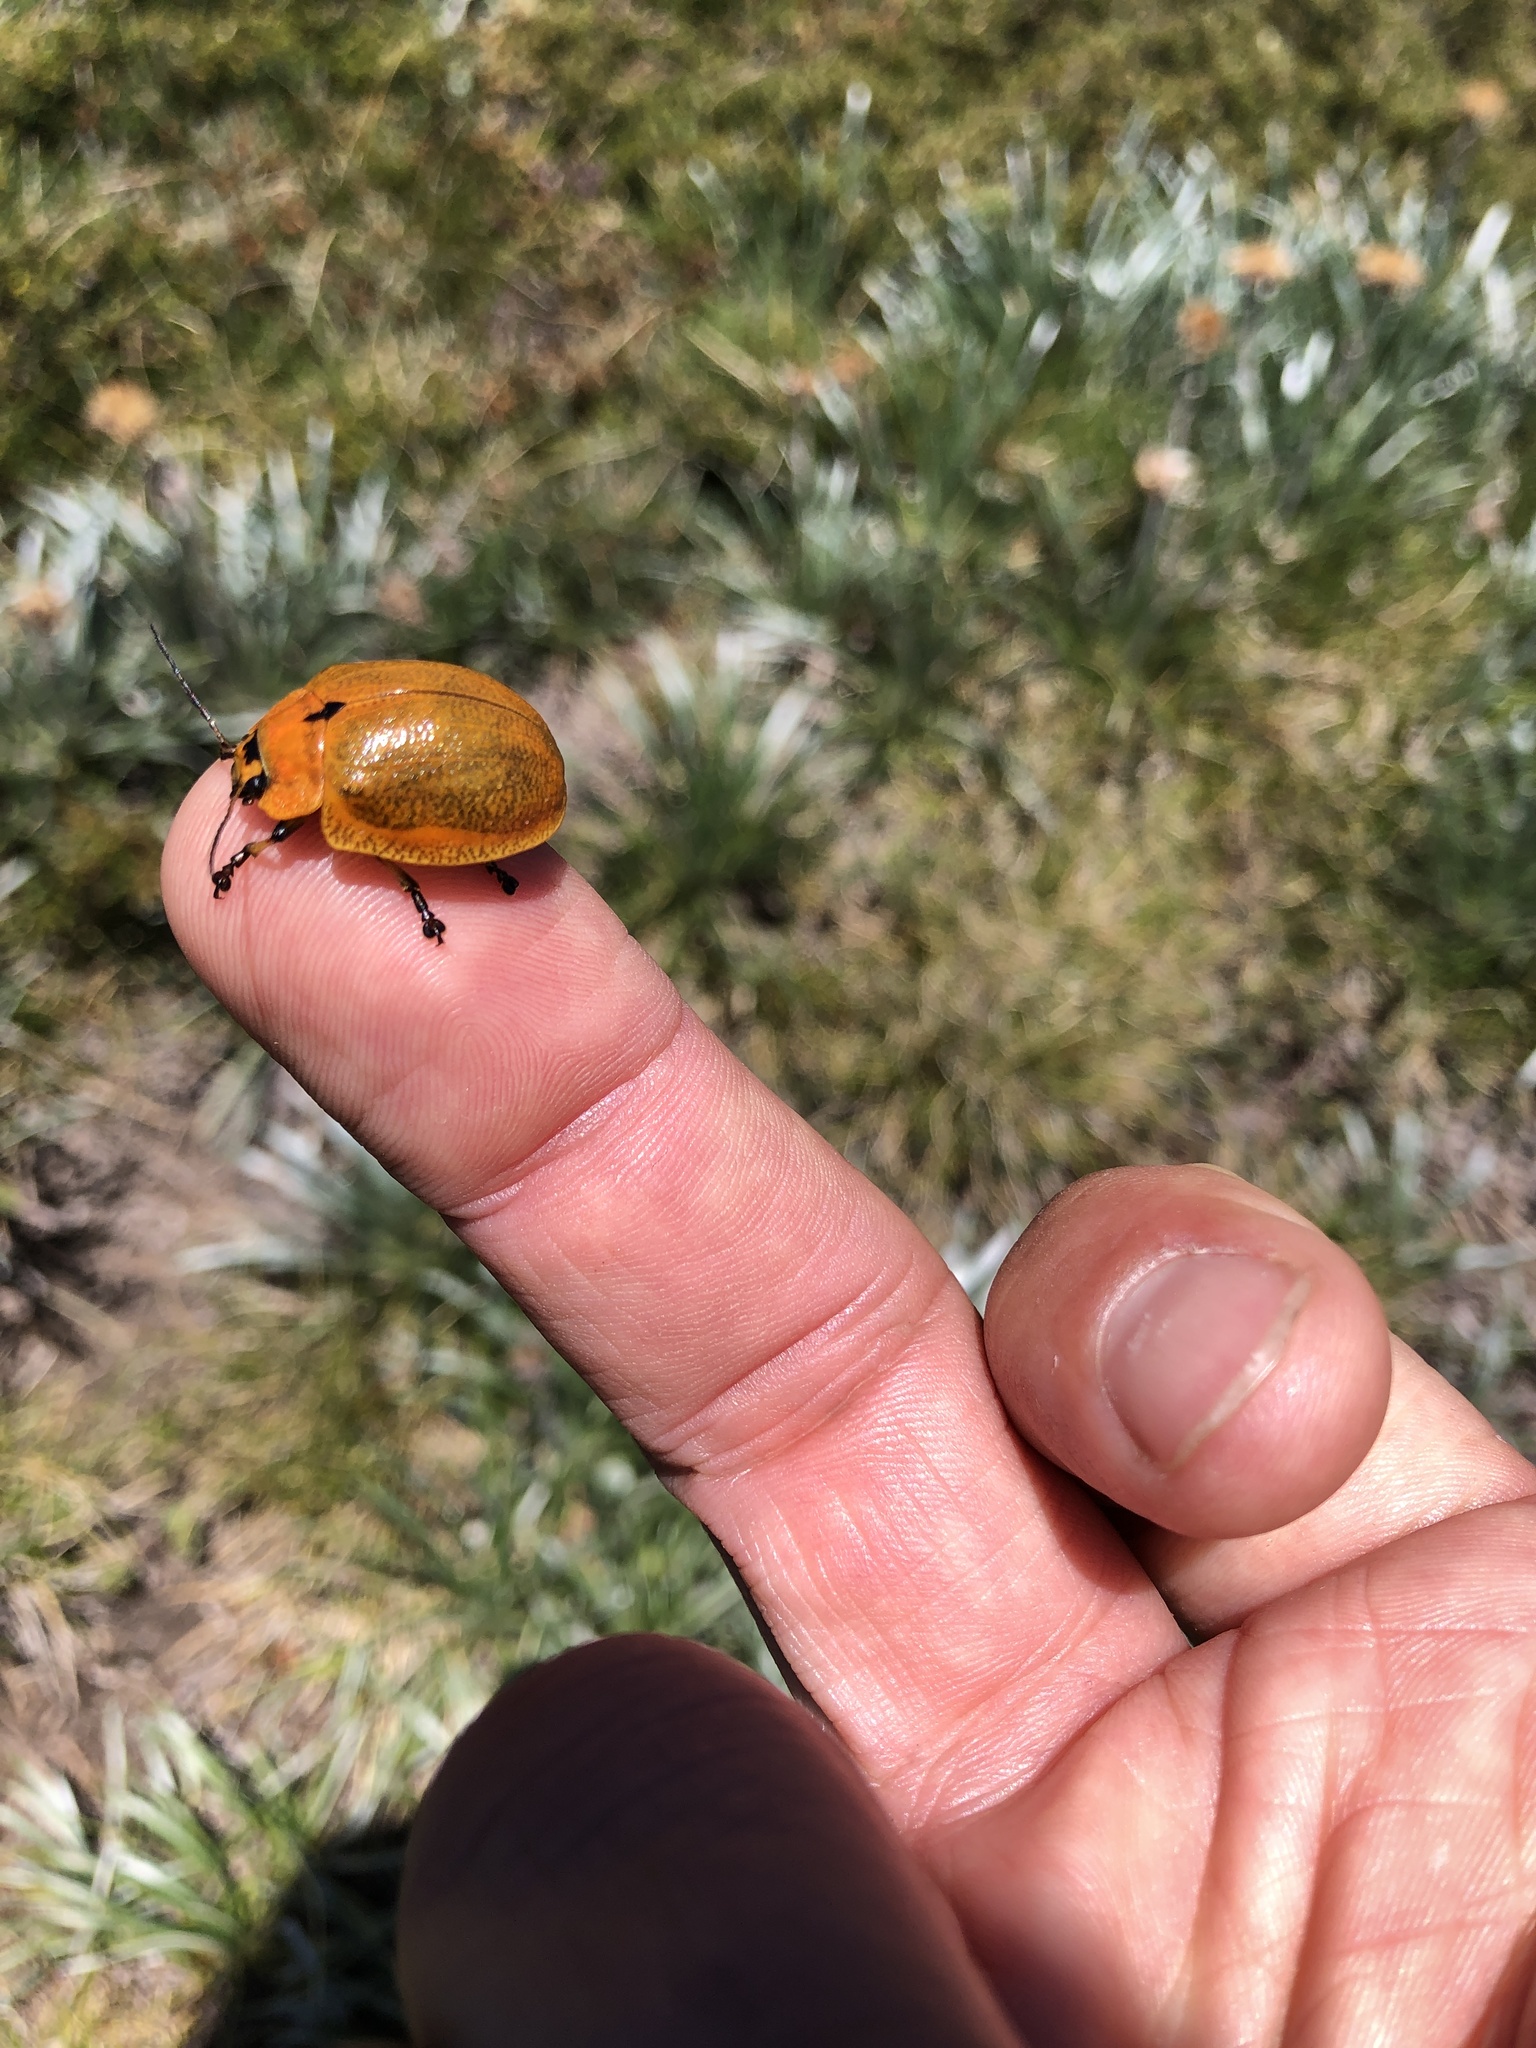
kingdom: Animalia
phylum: Arthropoda
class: Insecta
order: Coleoptera
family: Chrysomelidae
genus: Paropsis
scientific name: Paropsis
